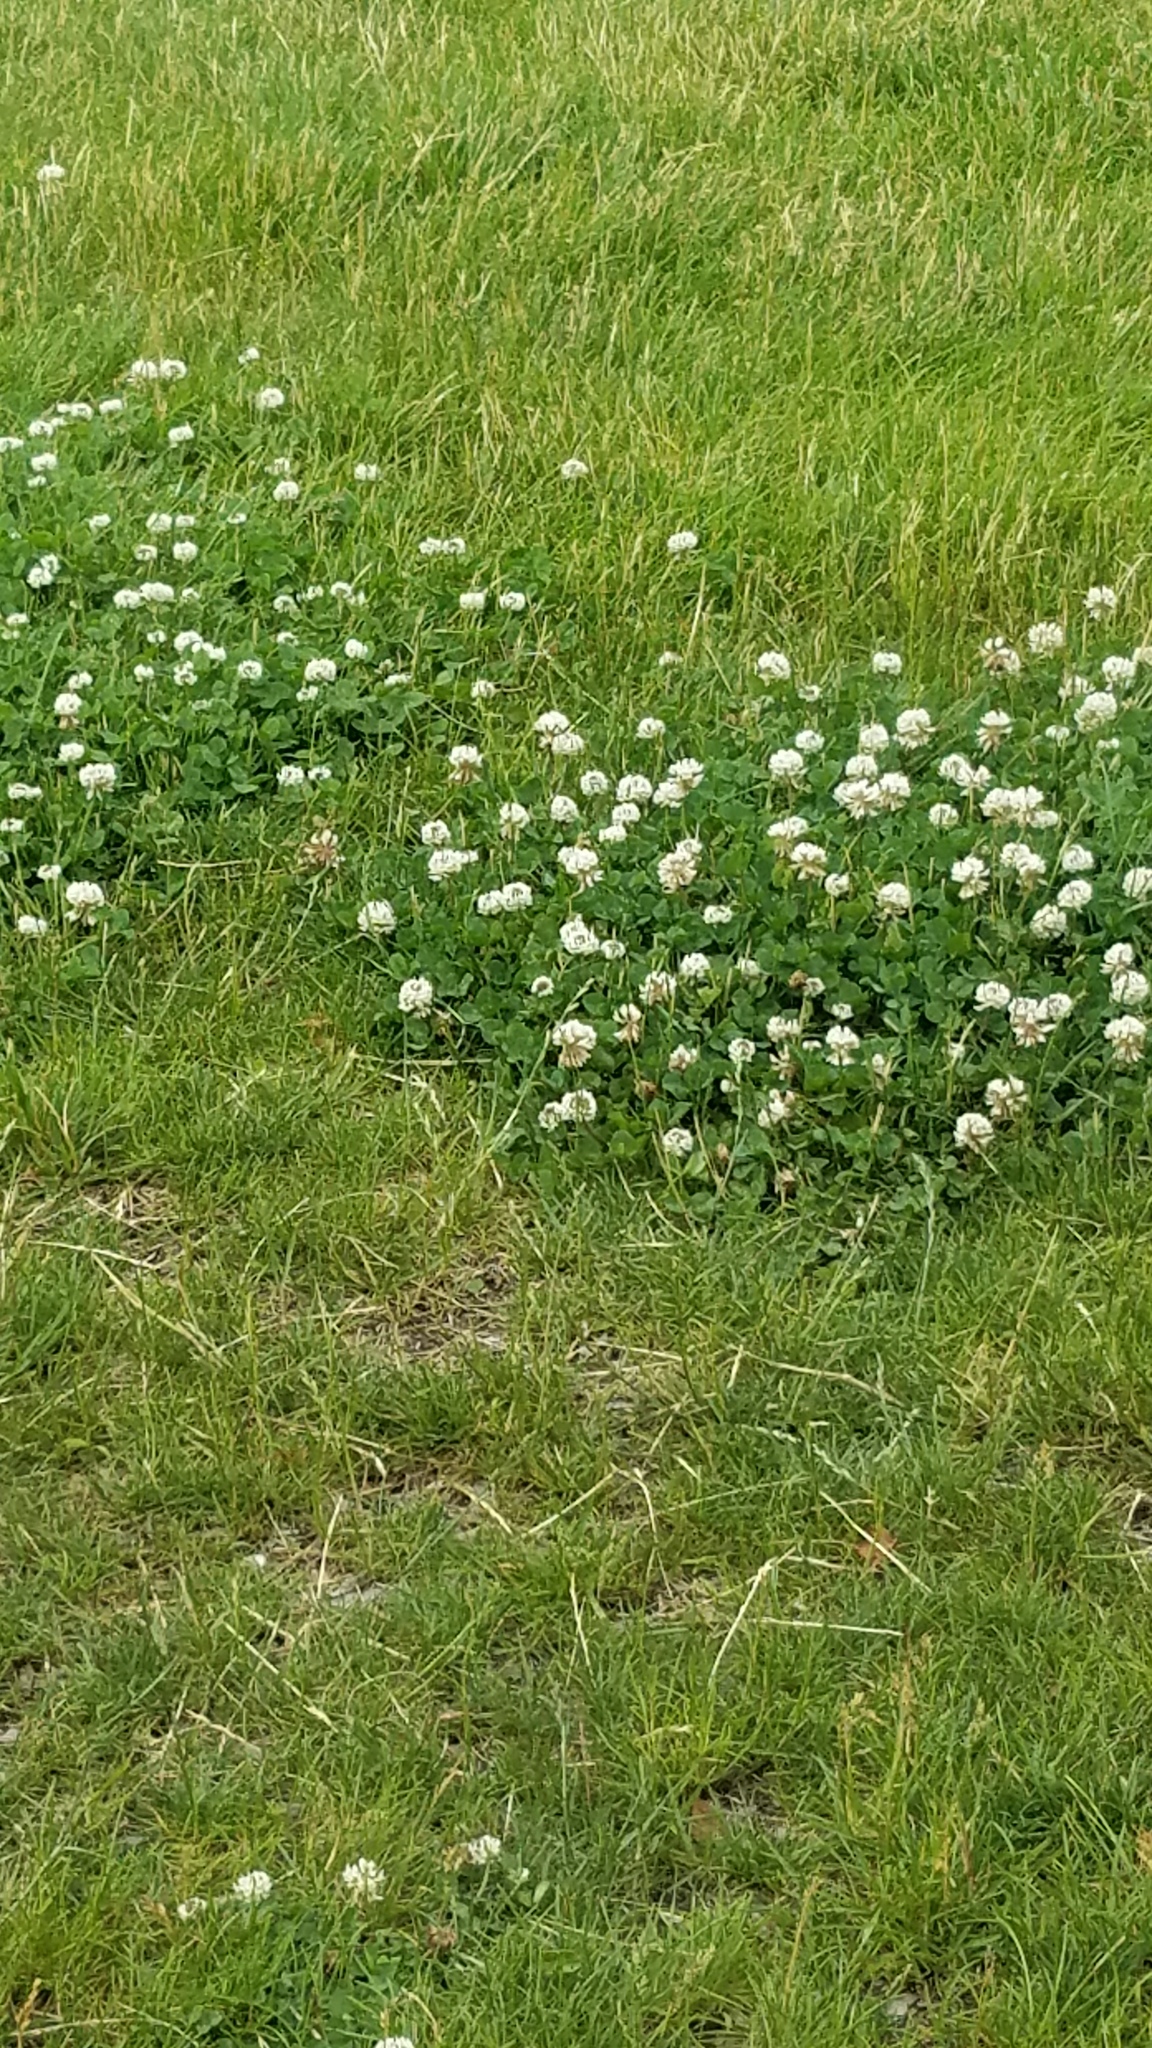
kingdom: Plantae
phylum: Tracheophyta
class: Magnoliopsida
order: Fabales
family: Fabaceae
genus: Trifolium
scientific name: Trifolium repens
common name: White clover
